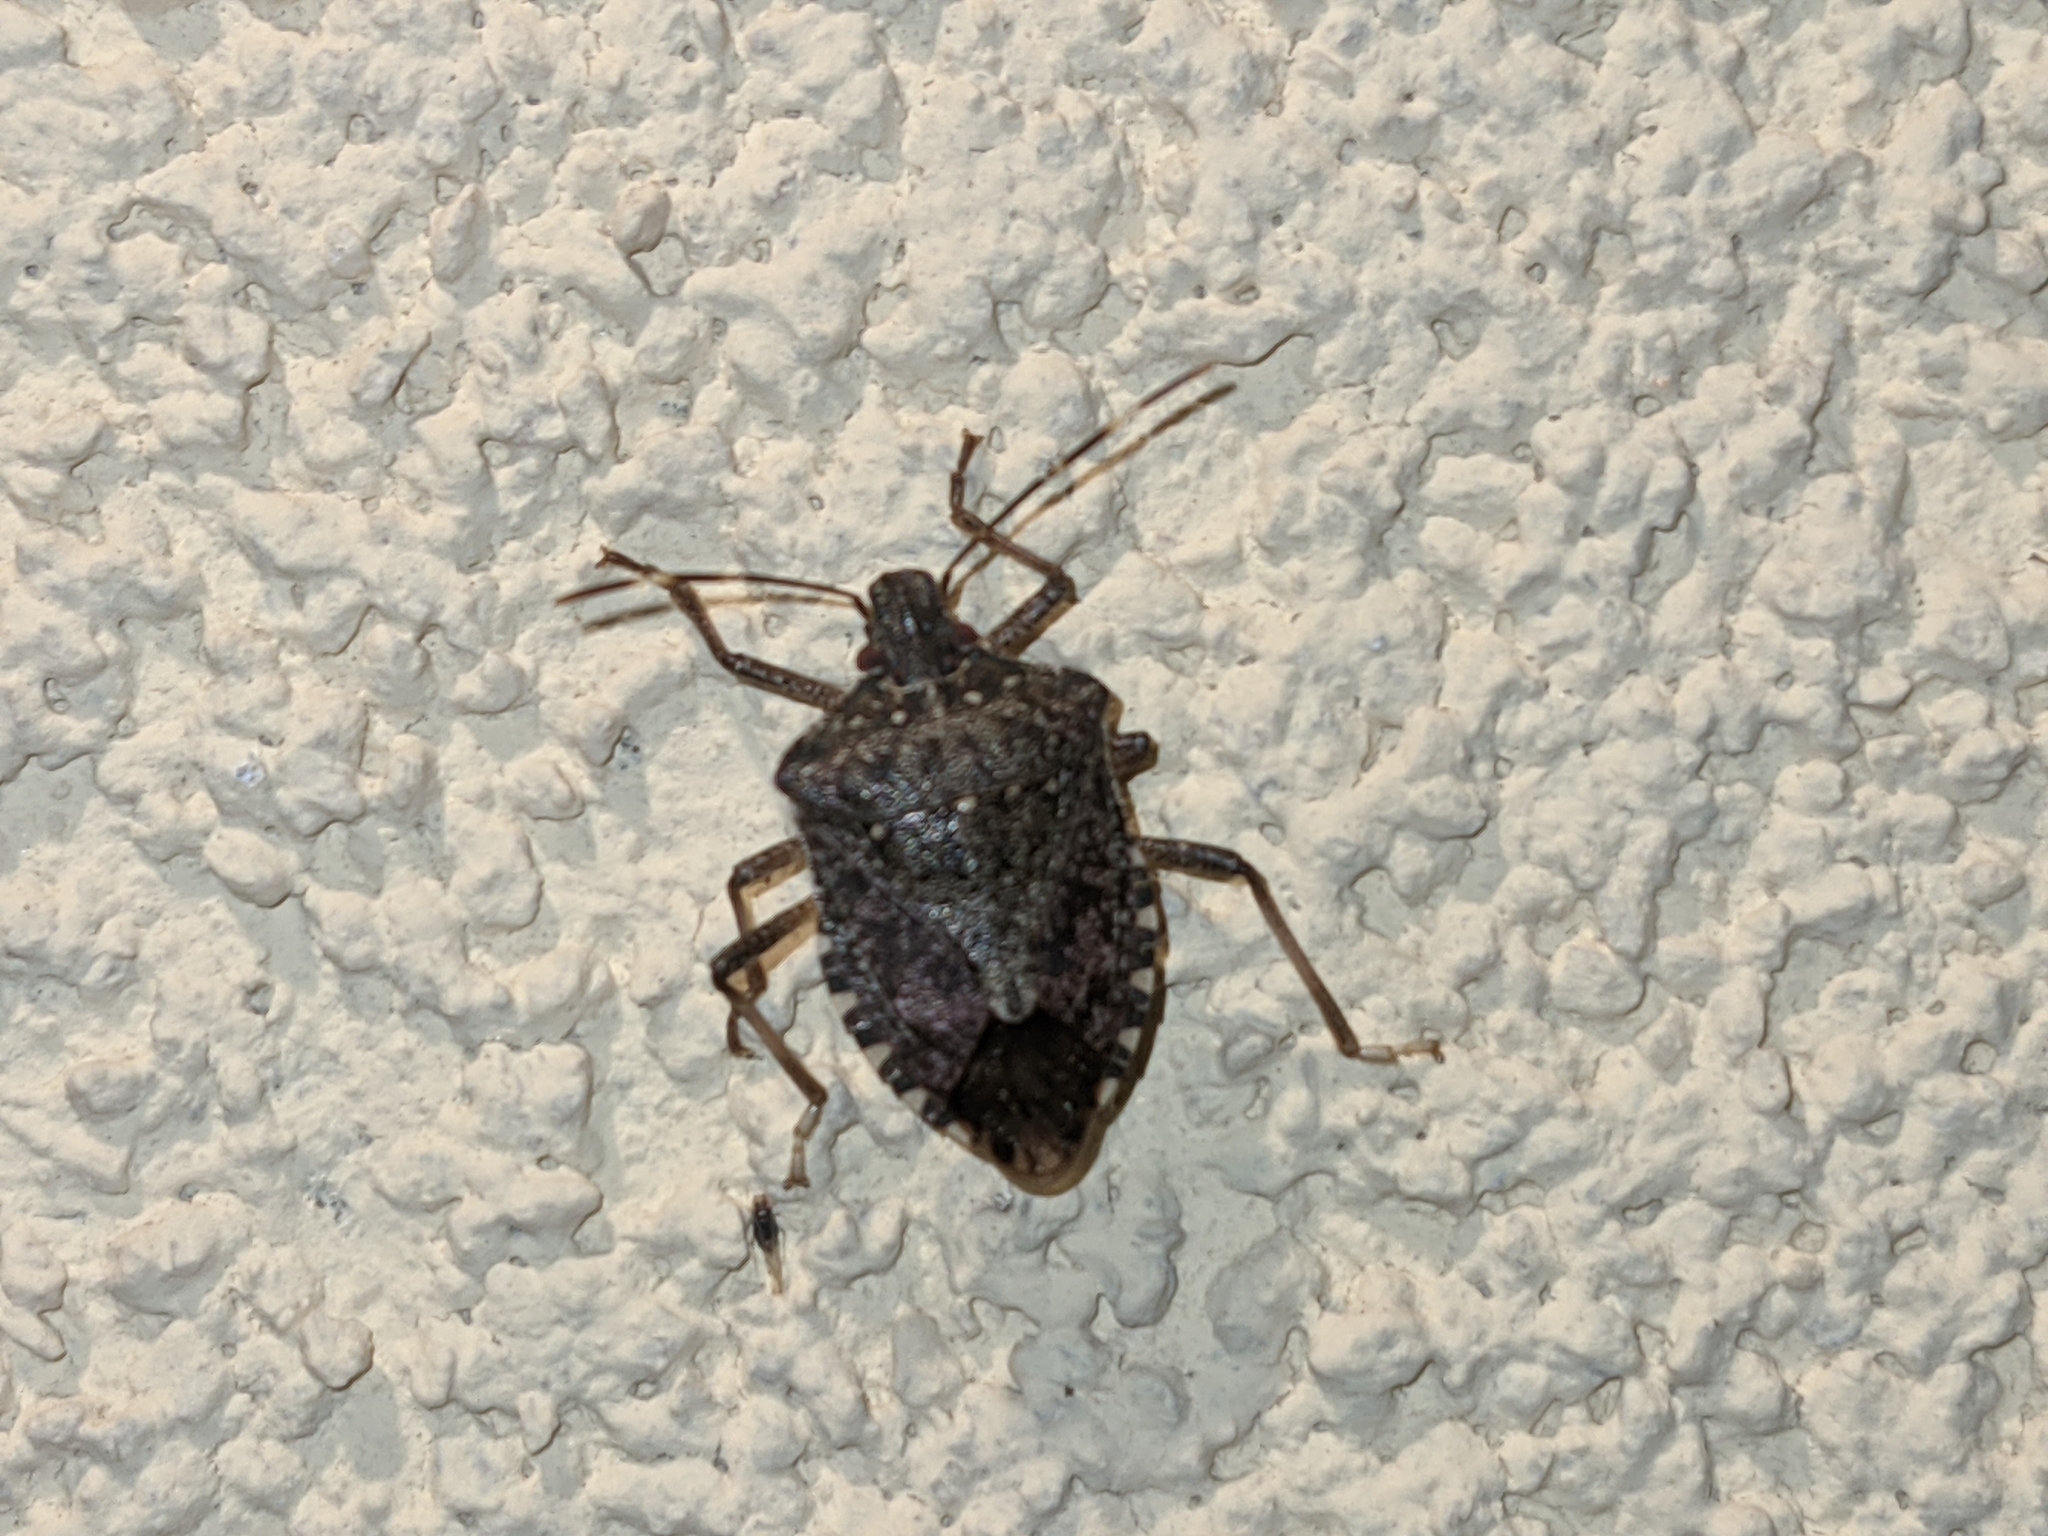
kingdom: Animalia
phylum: Arthropoda
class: Insecta
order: Hemiptera
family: Pentatomidae
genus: Halyomorpha
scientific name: Halyomorpha halys
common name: Brown marmorated stink bug
